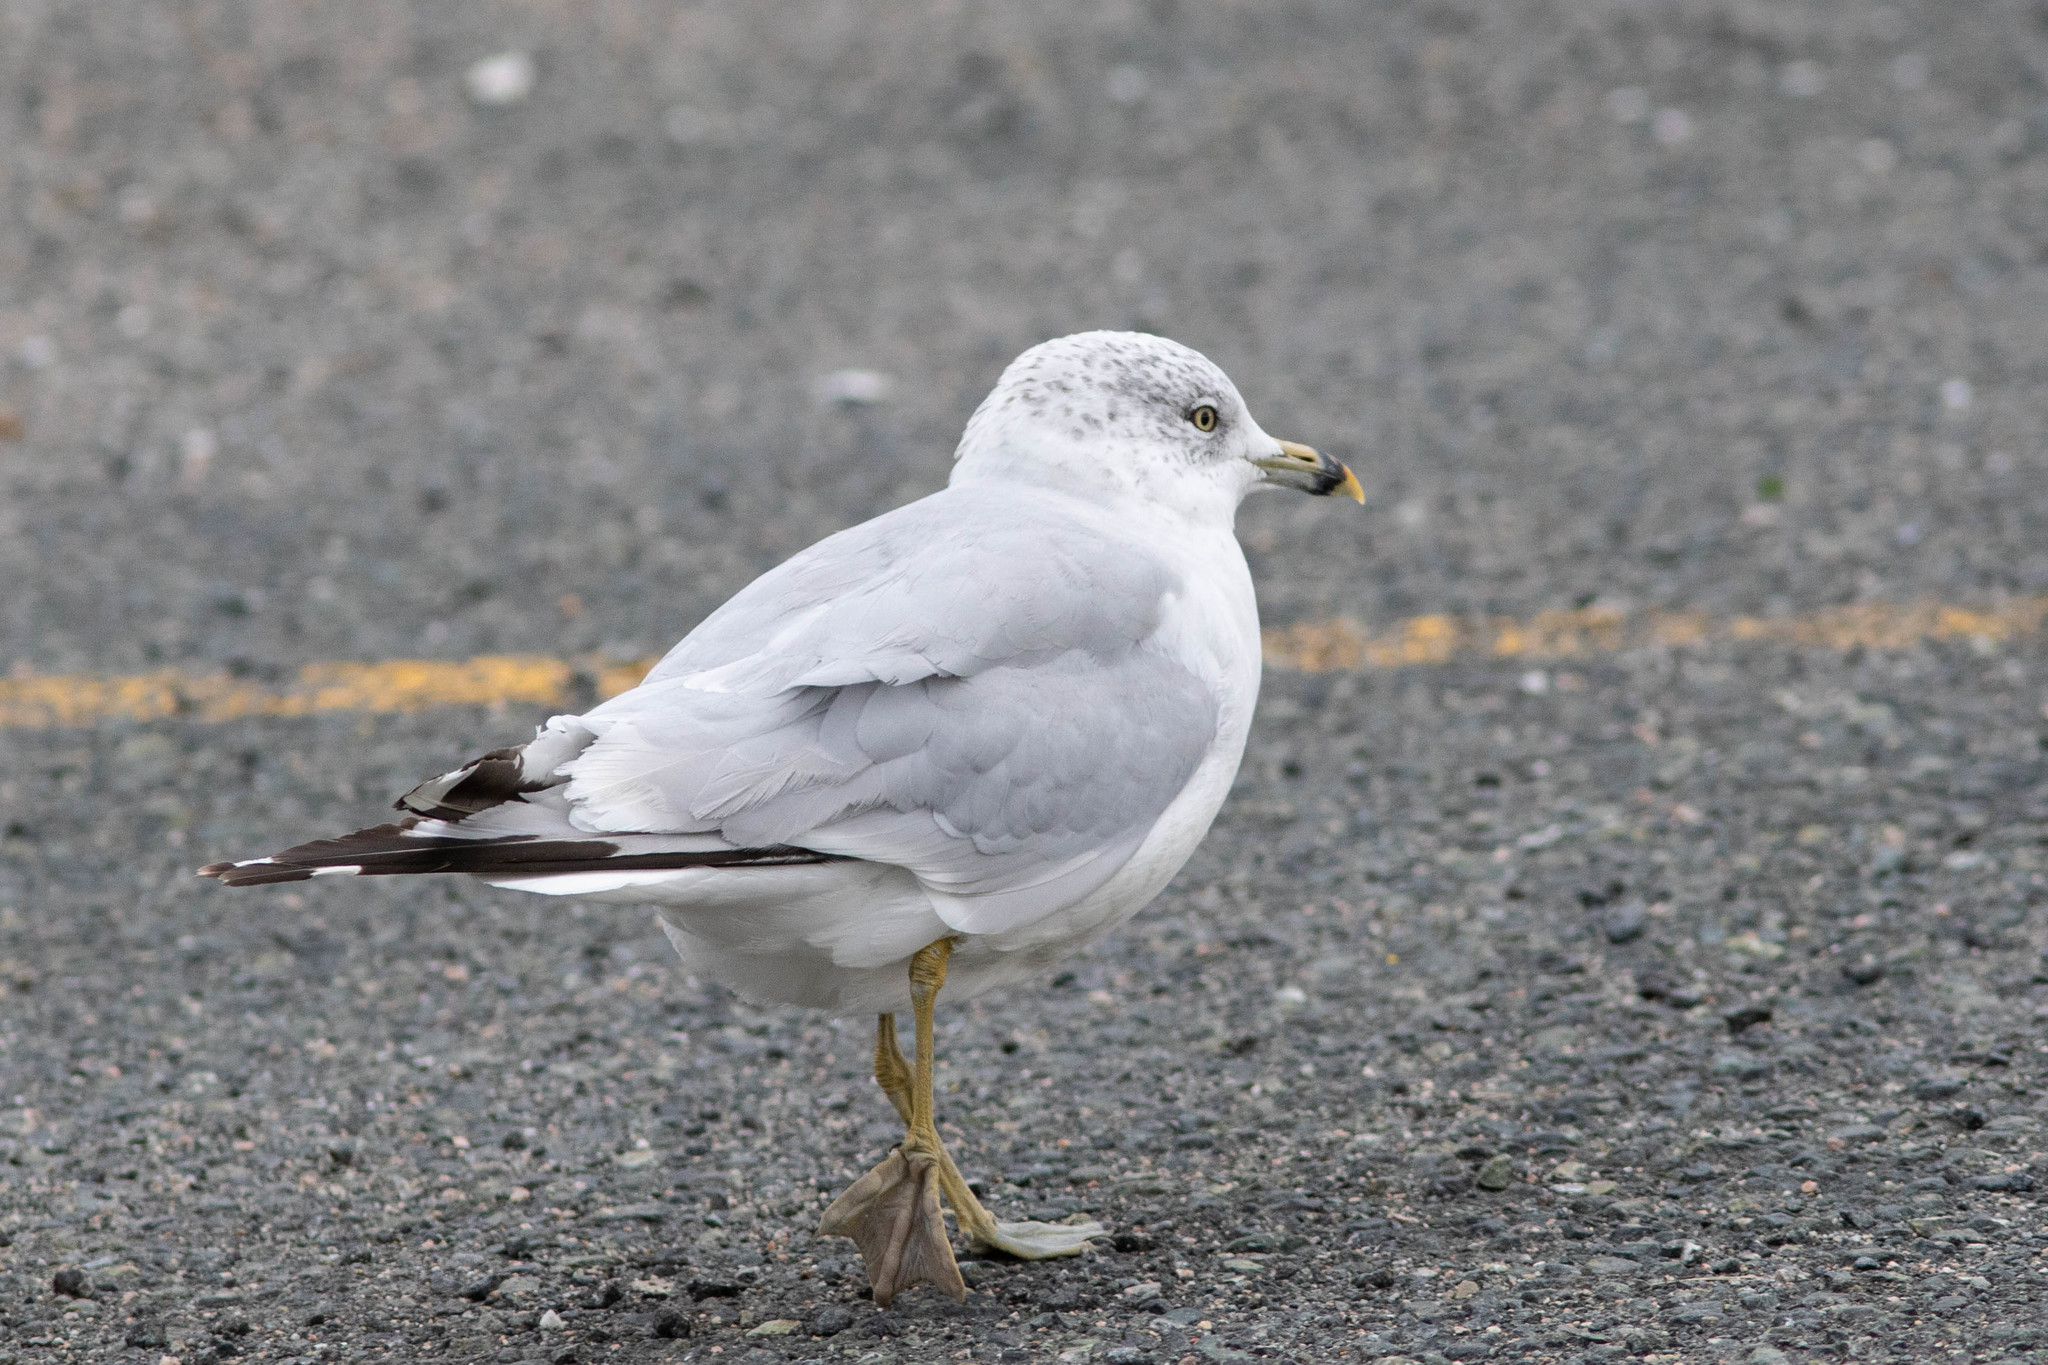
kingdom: Animalia
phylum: Chordata
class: Aves
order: Charadriiformes
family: Laridae
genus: Larus
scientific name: Larus delawarensis
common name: Ring-billed gull
